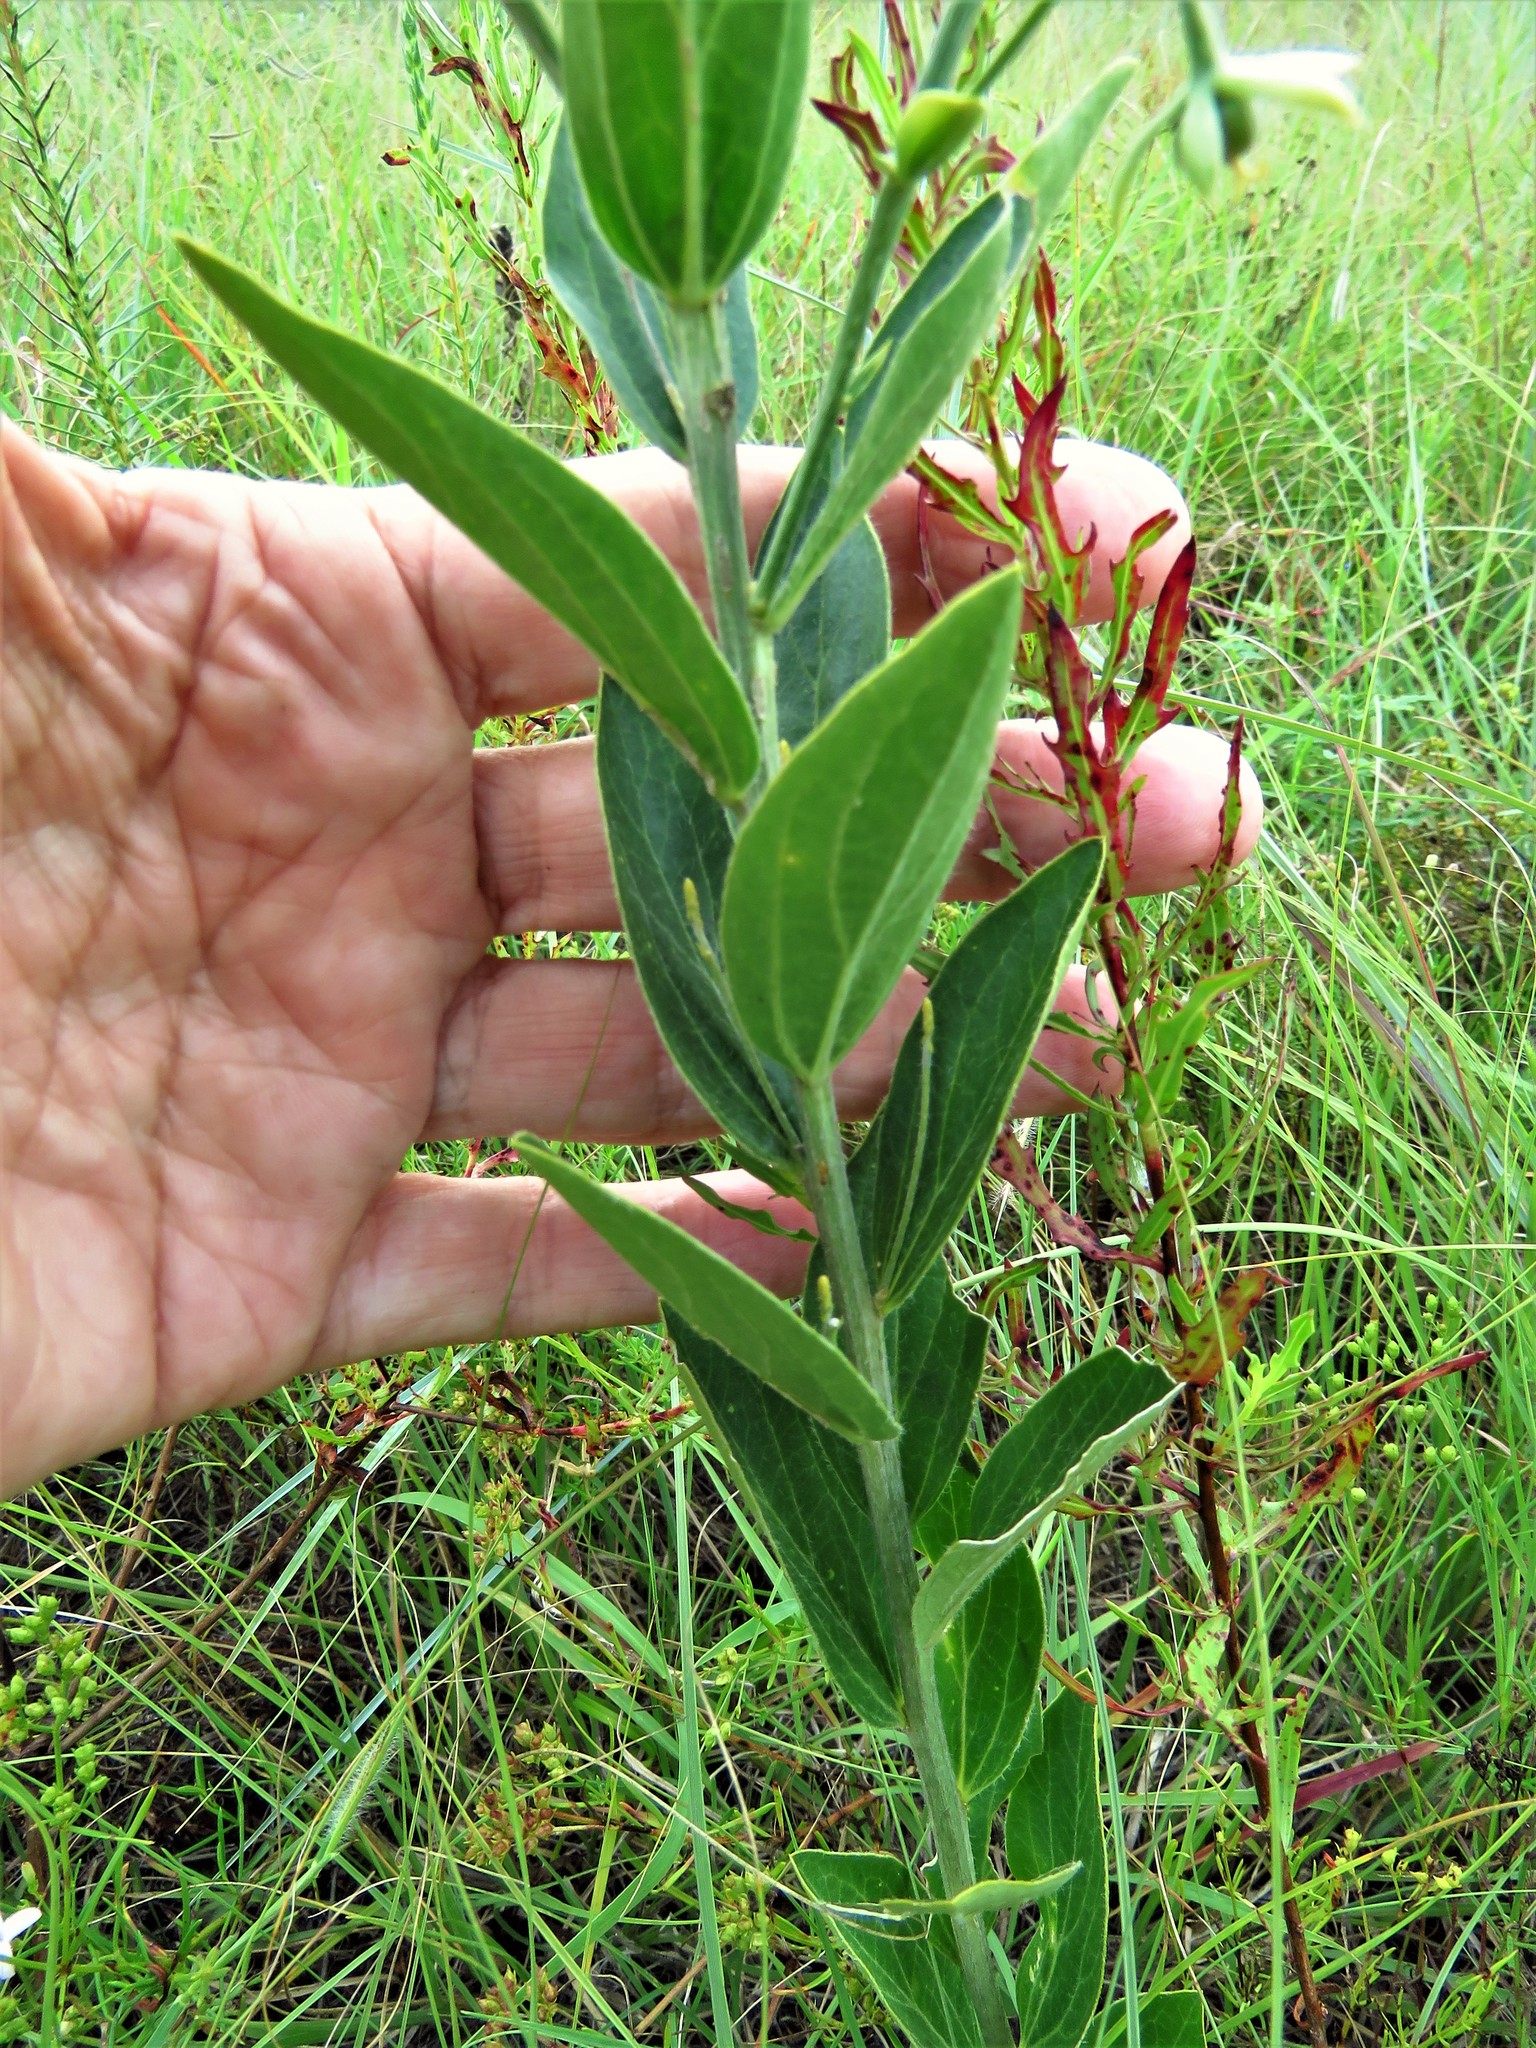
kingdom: Plantae
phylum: Tracheophyta
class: Magnoliopsida
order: Malpighiales
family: Euphorbiaceae
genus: Ditaxis
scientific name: Ditaxis mercurialina
